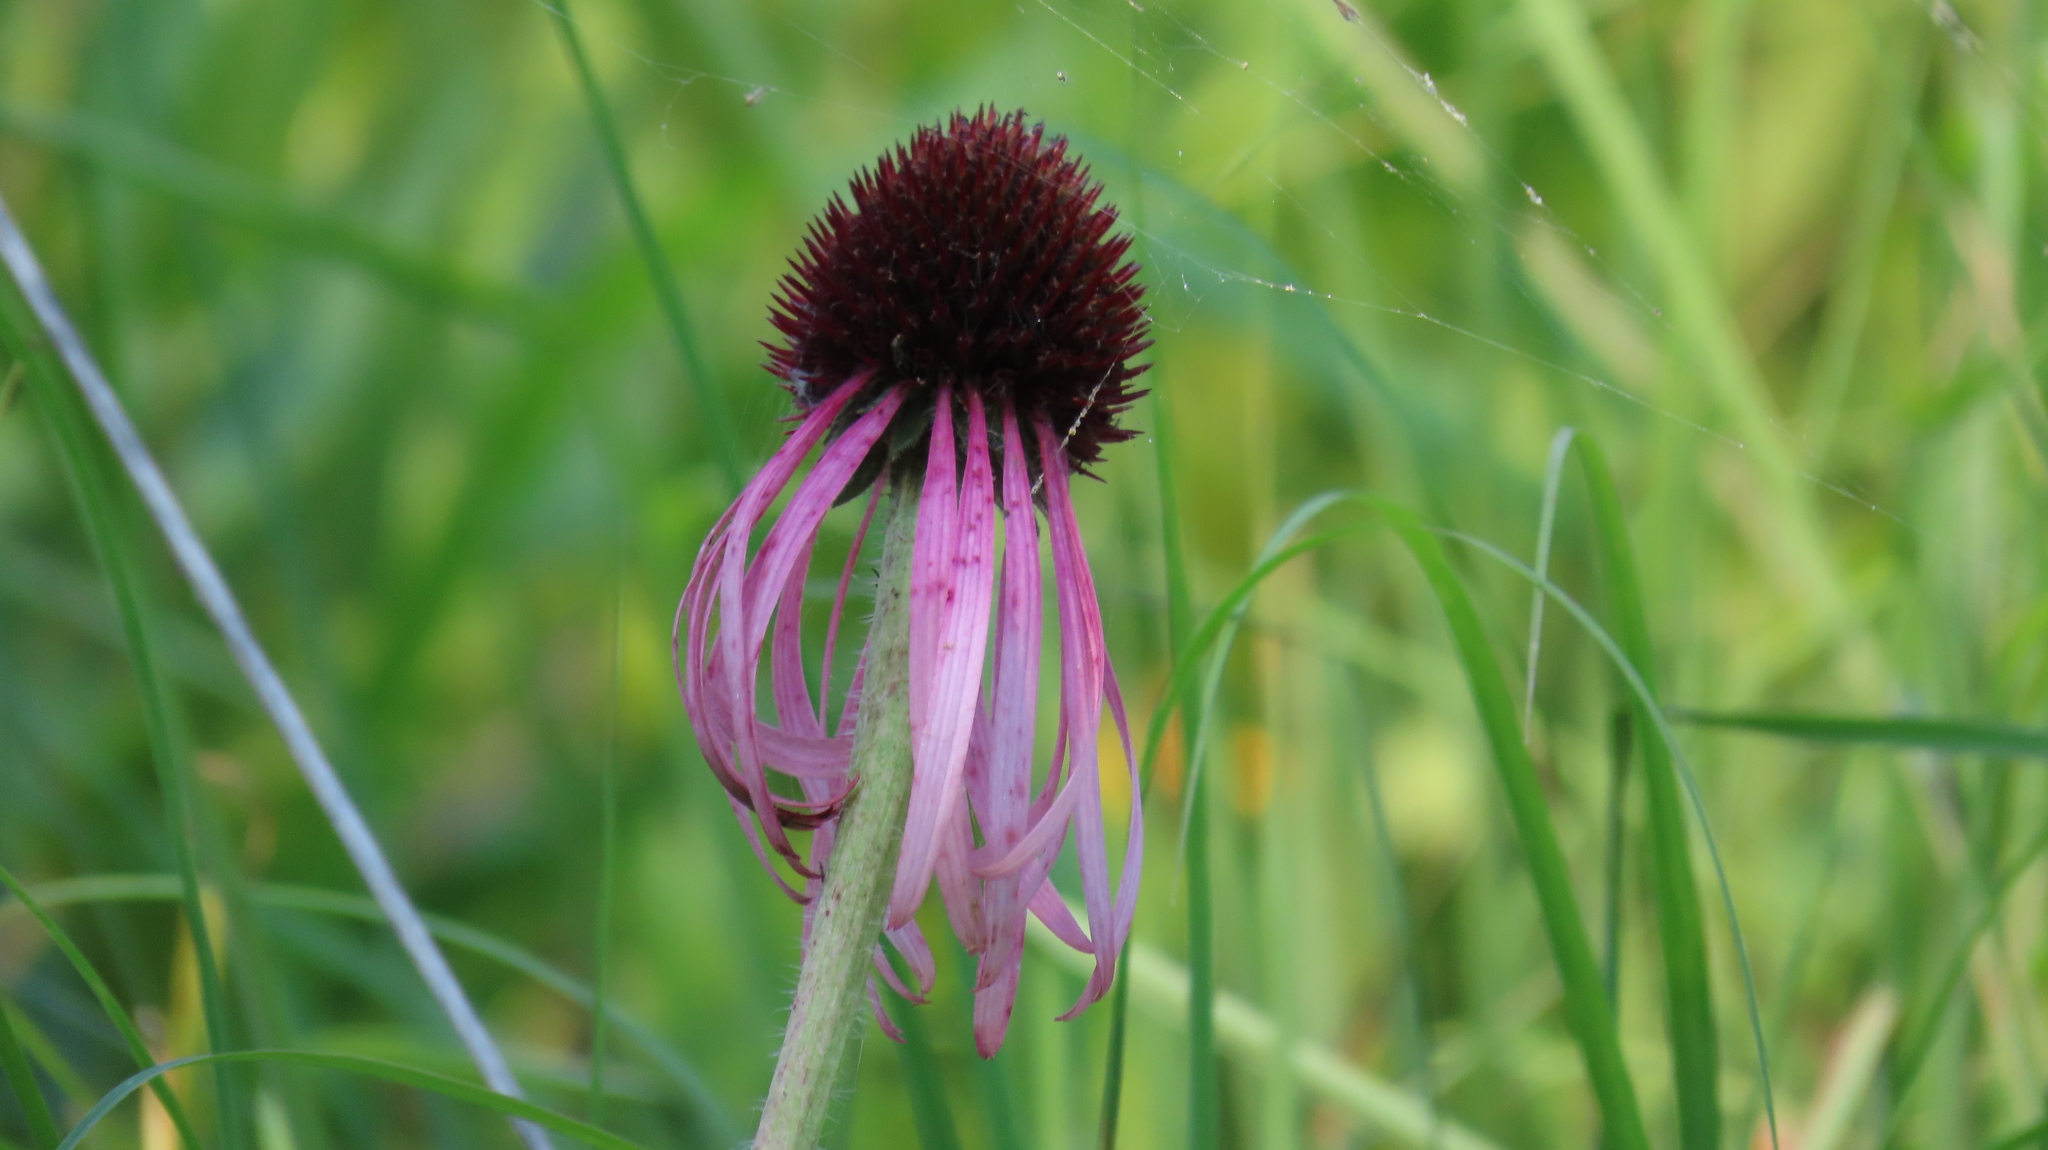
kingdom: Plantae
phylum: Tracheophyta
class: Magnoliopsida
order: Asterales
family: Asteraceae
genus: Echinacea
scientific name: Echinacea pallida
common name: Pale echinacea
